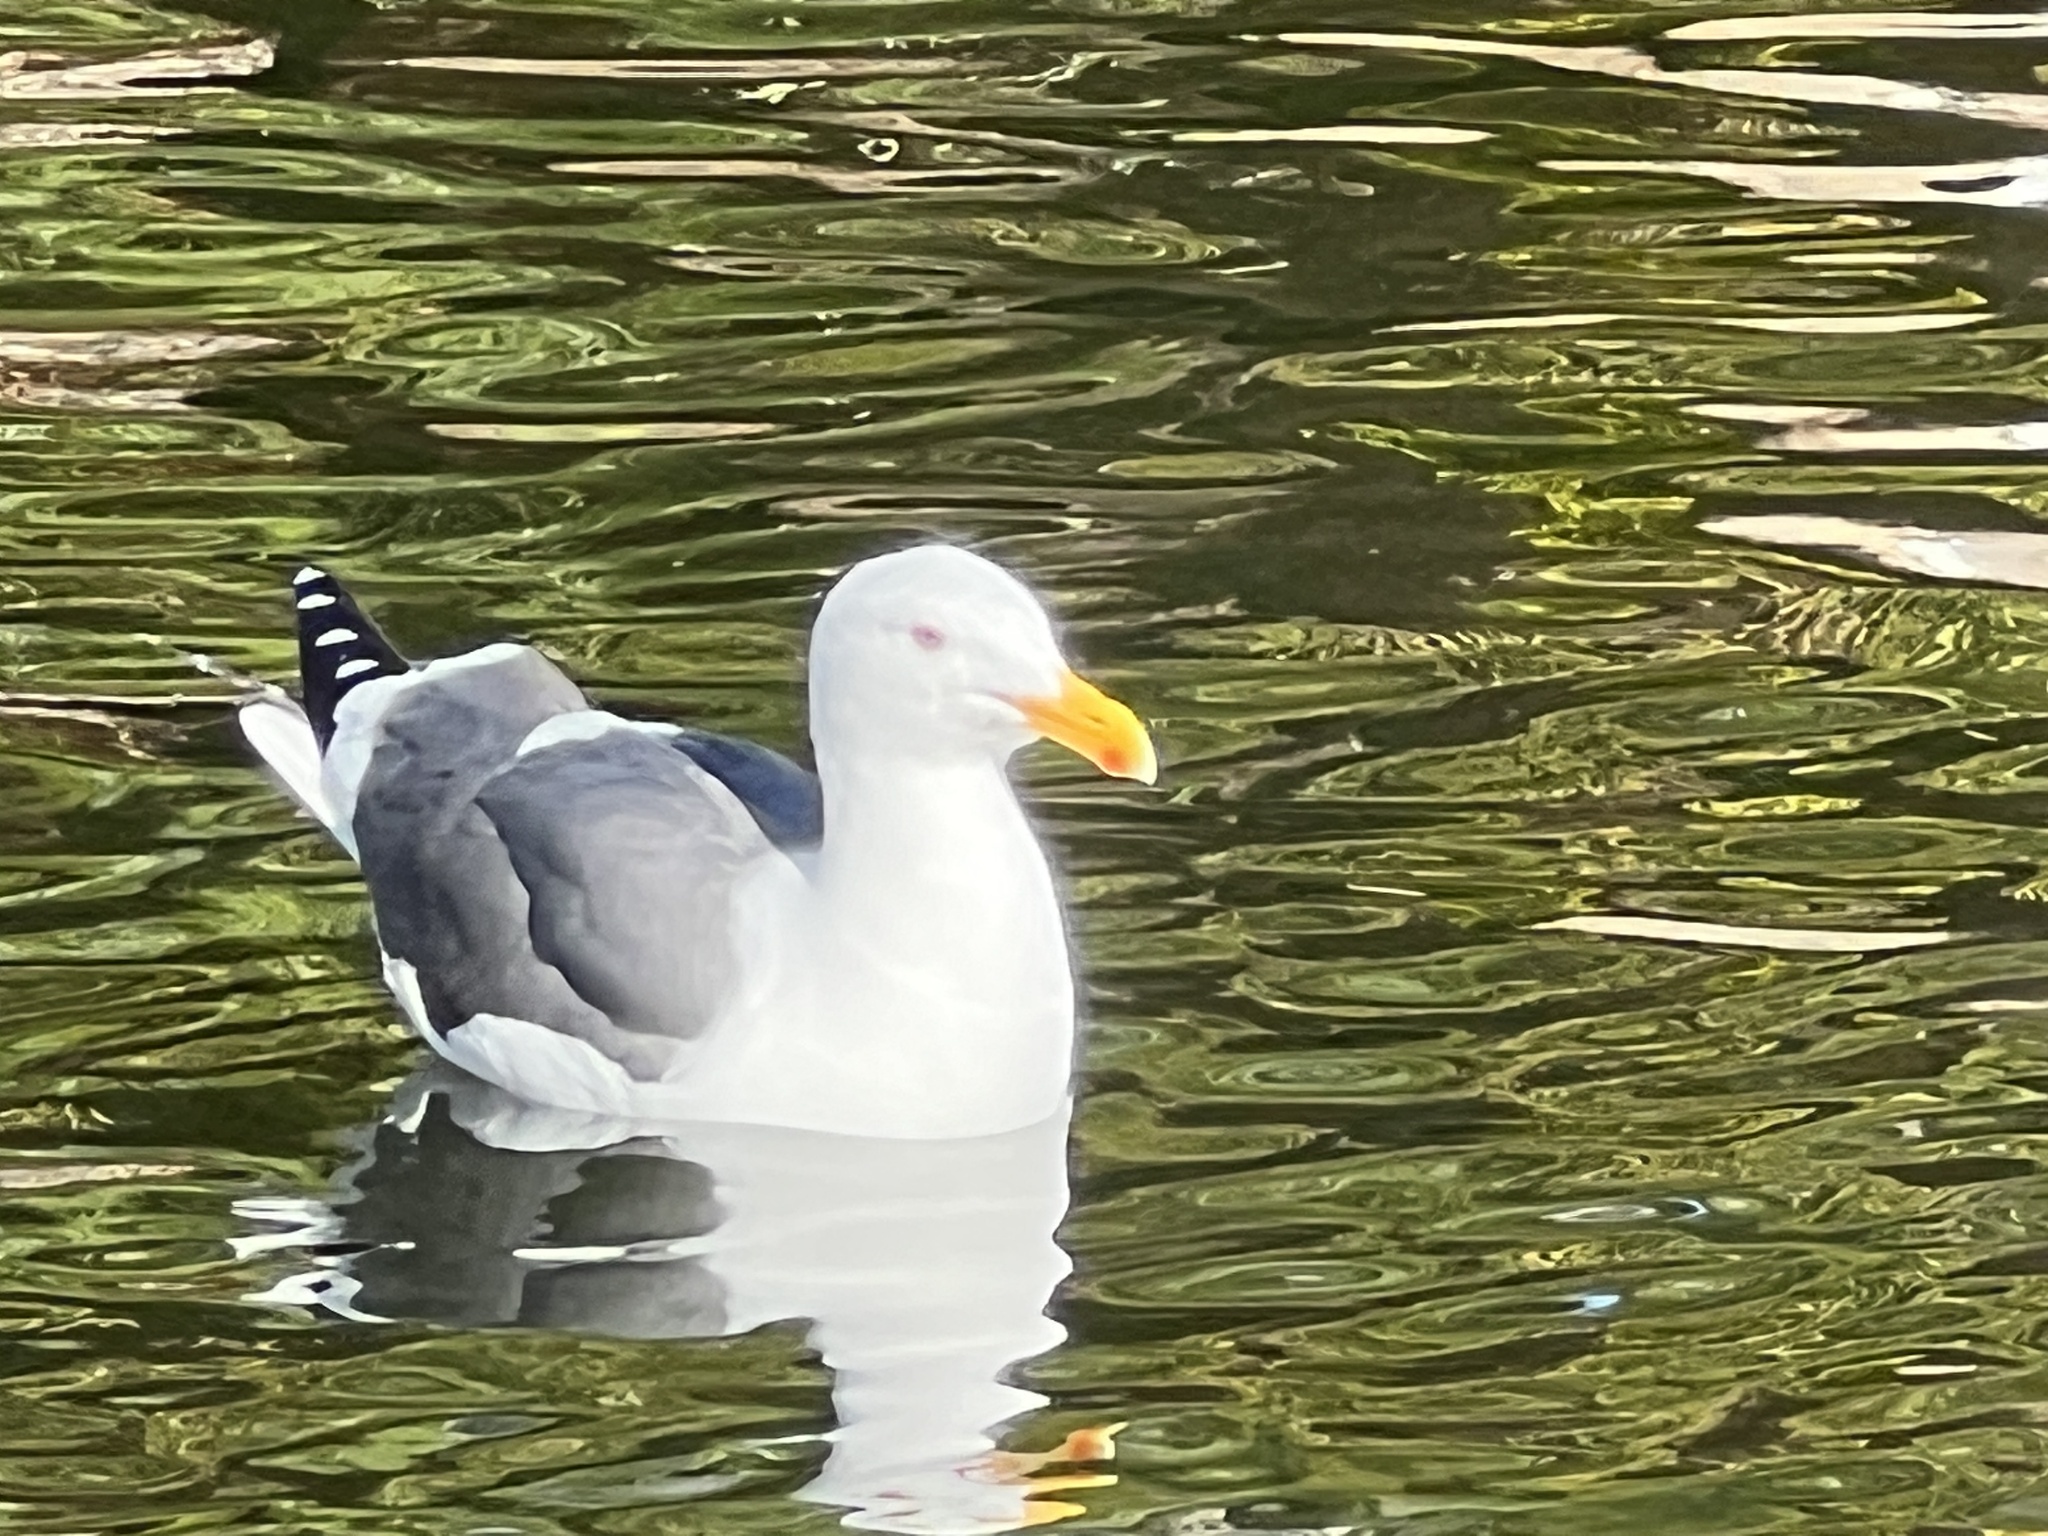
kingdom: Animalia
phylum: Chordata
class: Aves
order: Charadriiformes
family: Laridae
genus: Larus
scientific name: Larus occidentalis
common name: Western gull
